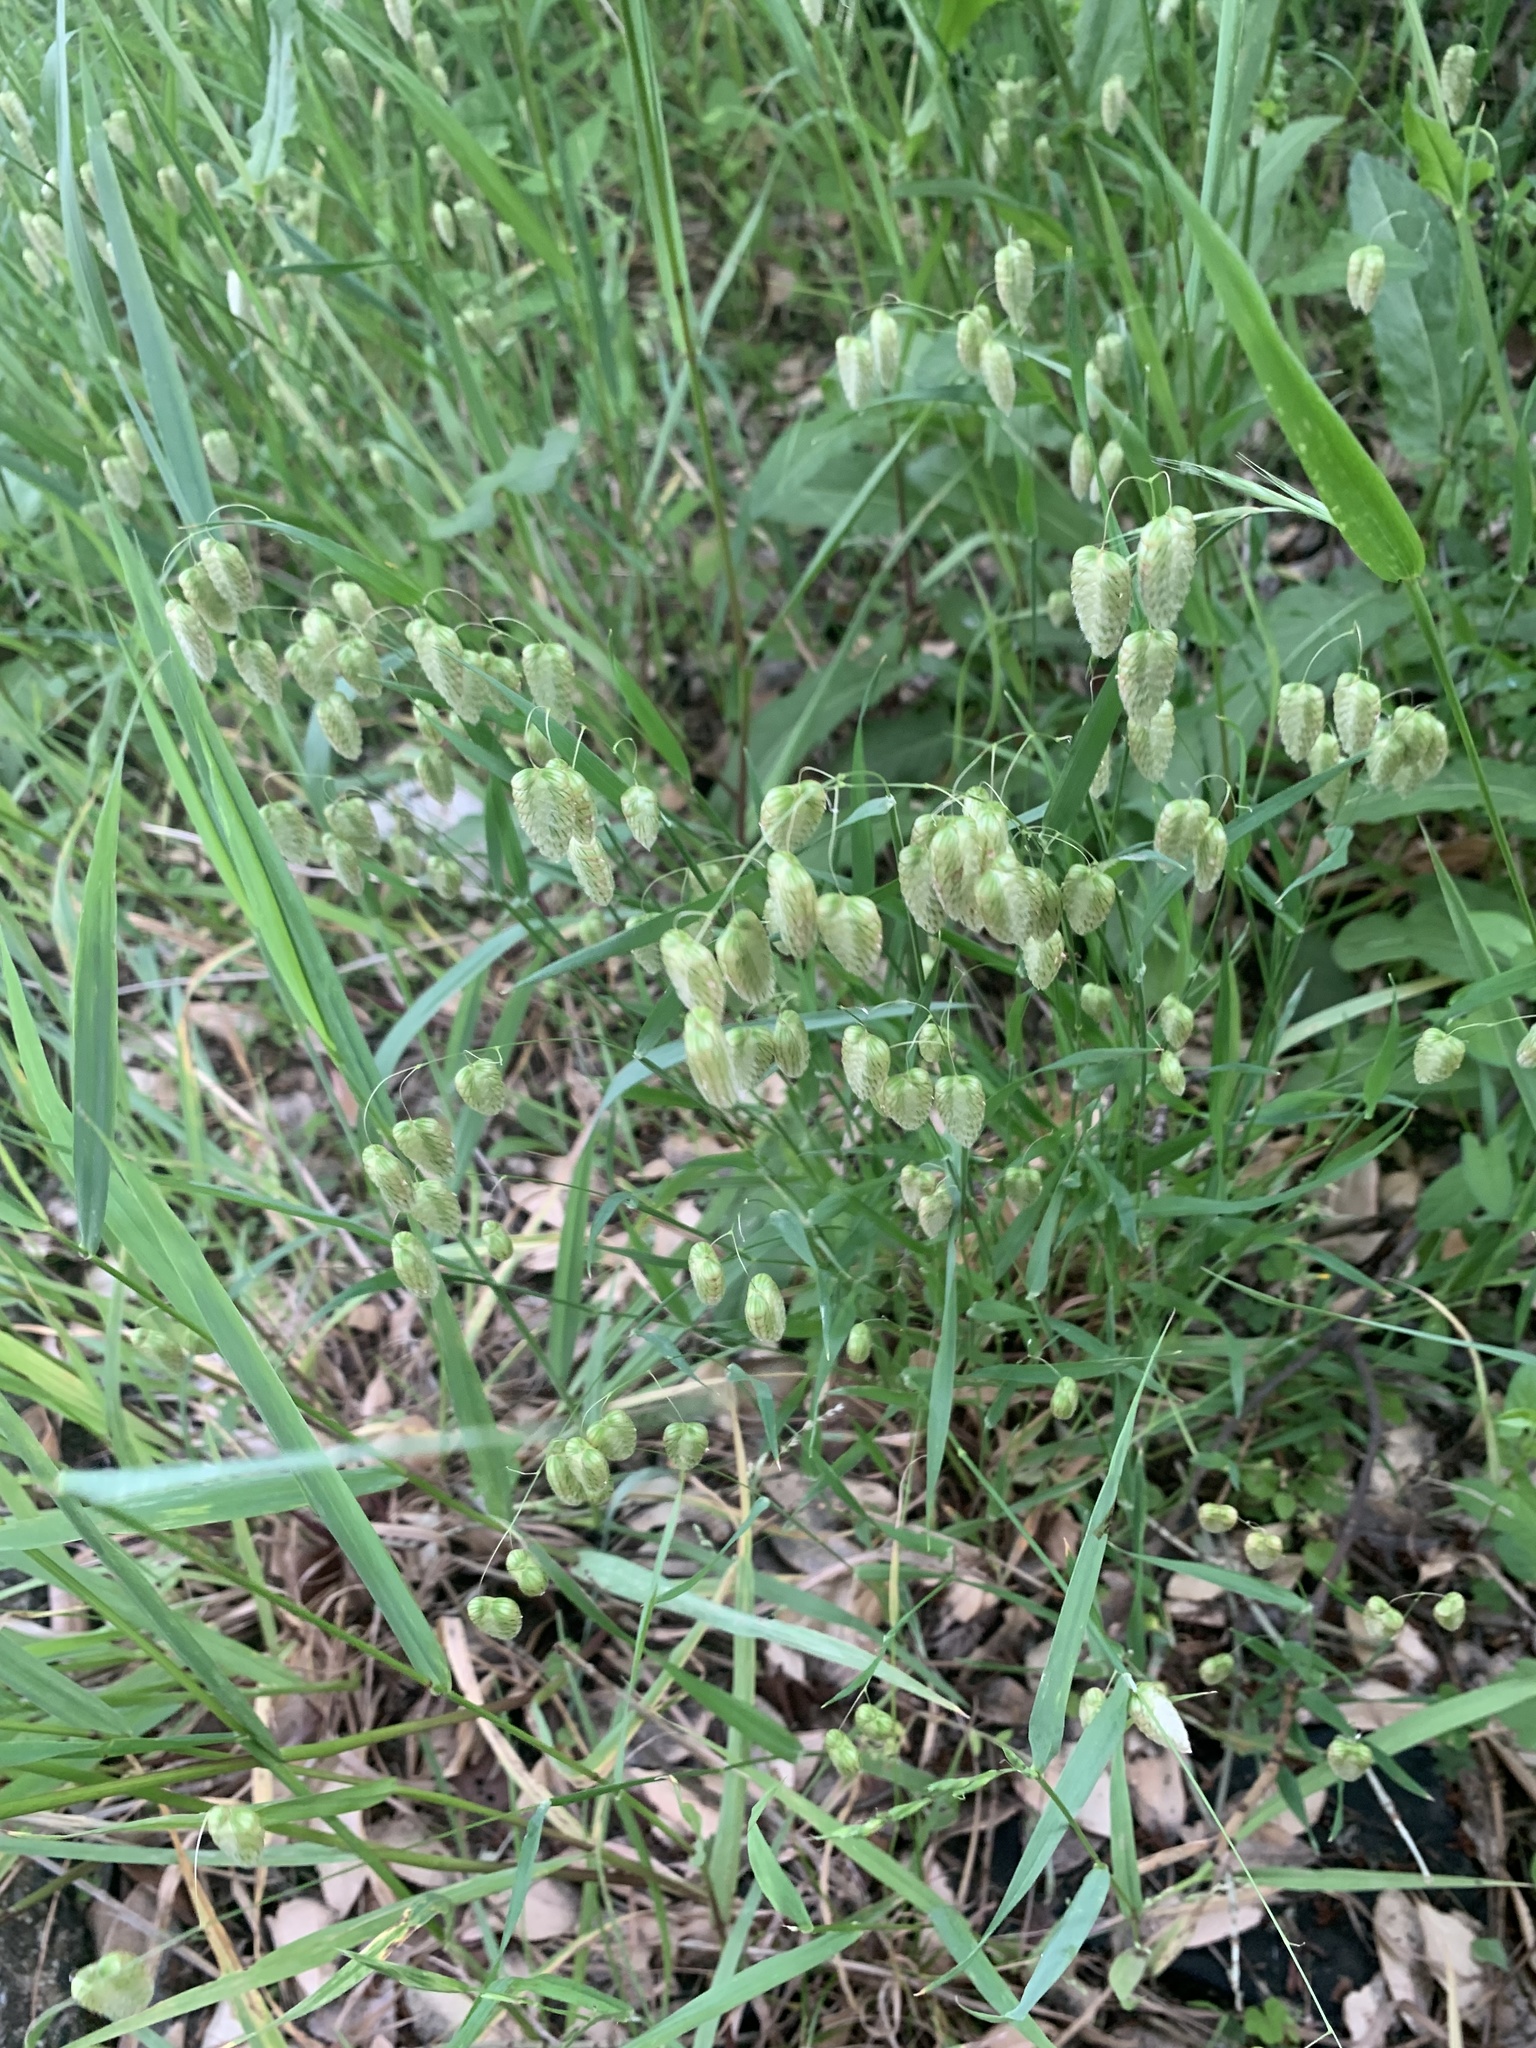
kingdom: Plantae
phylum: Tracheophyta
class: Liliopsida
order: Poales
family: Poaceae
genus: Briza
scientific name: Briza maxima
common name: Big quakinggrass
